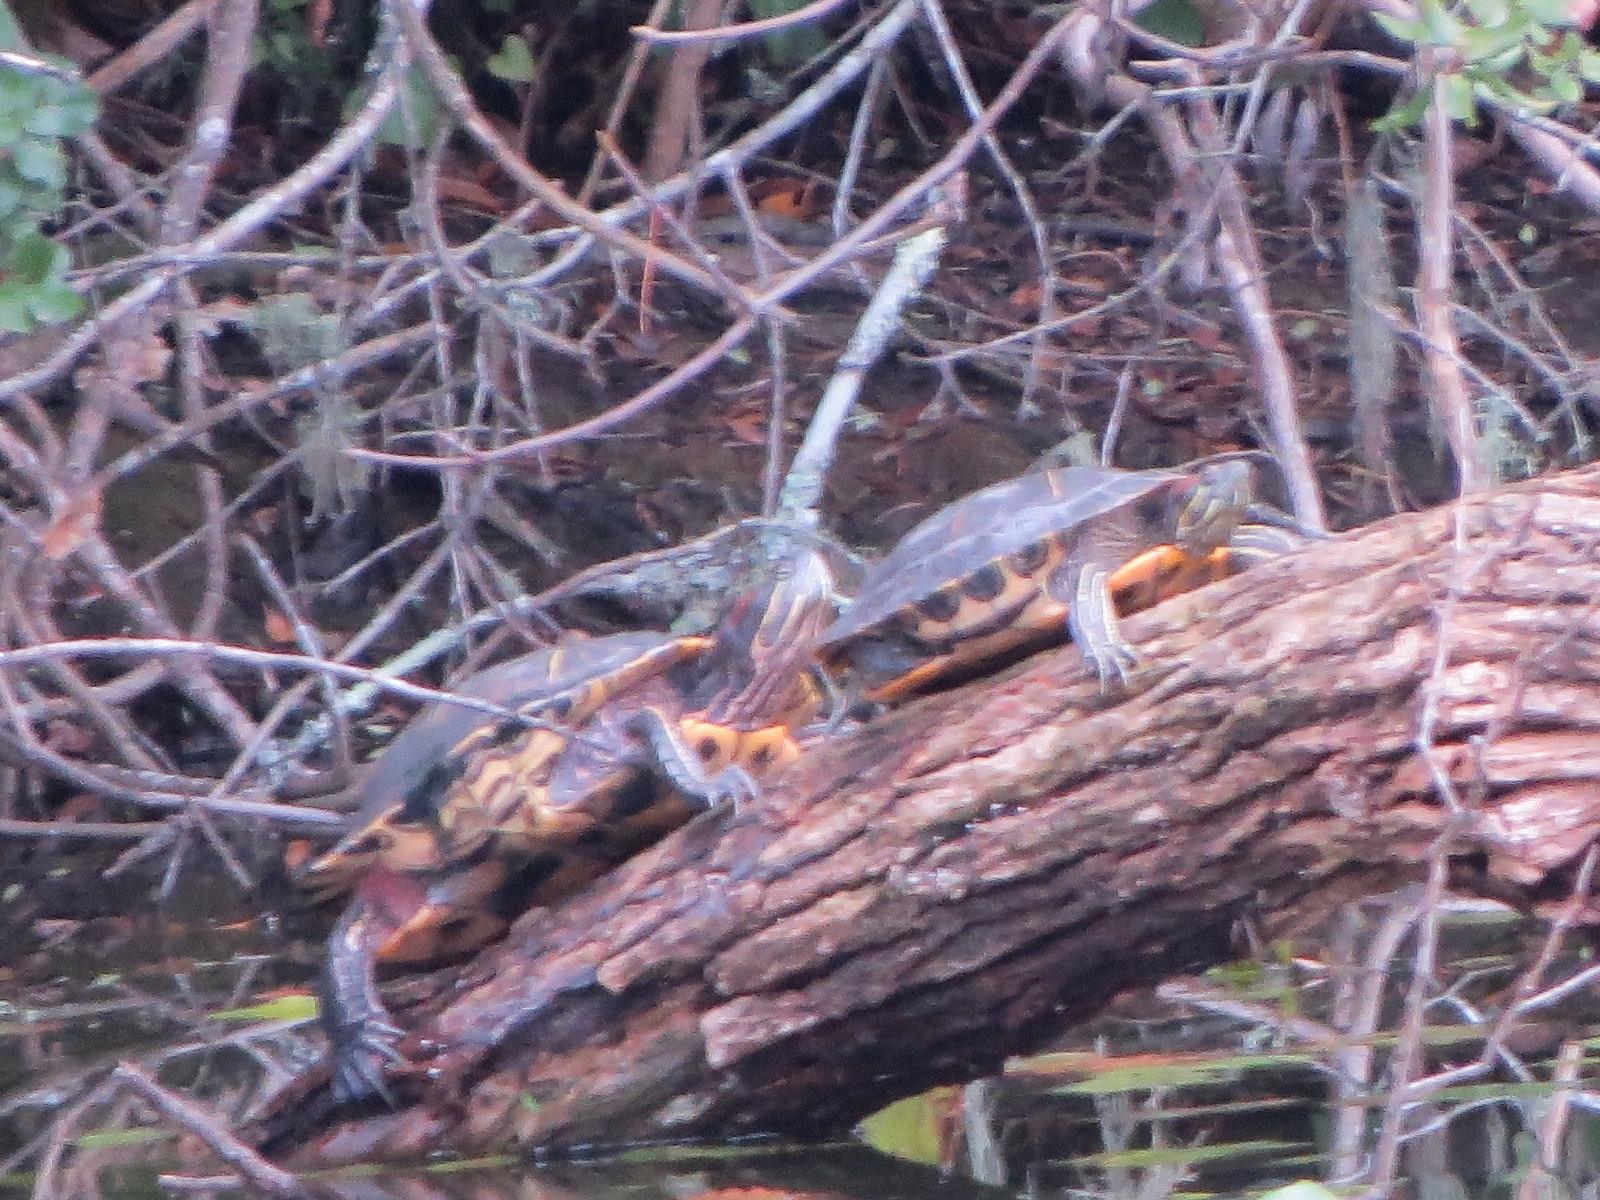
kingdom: Animalia
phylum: Chordata
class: Testudines
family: Emydidae
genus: Trachemys
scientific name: Trachemys scripta
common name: Slider
